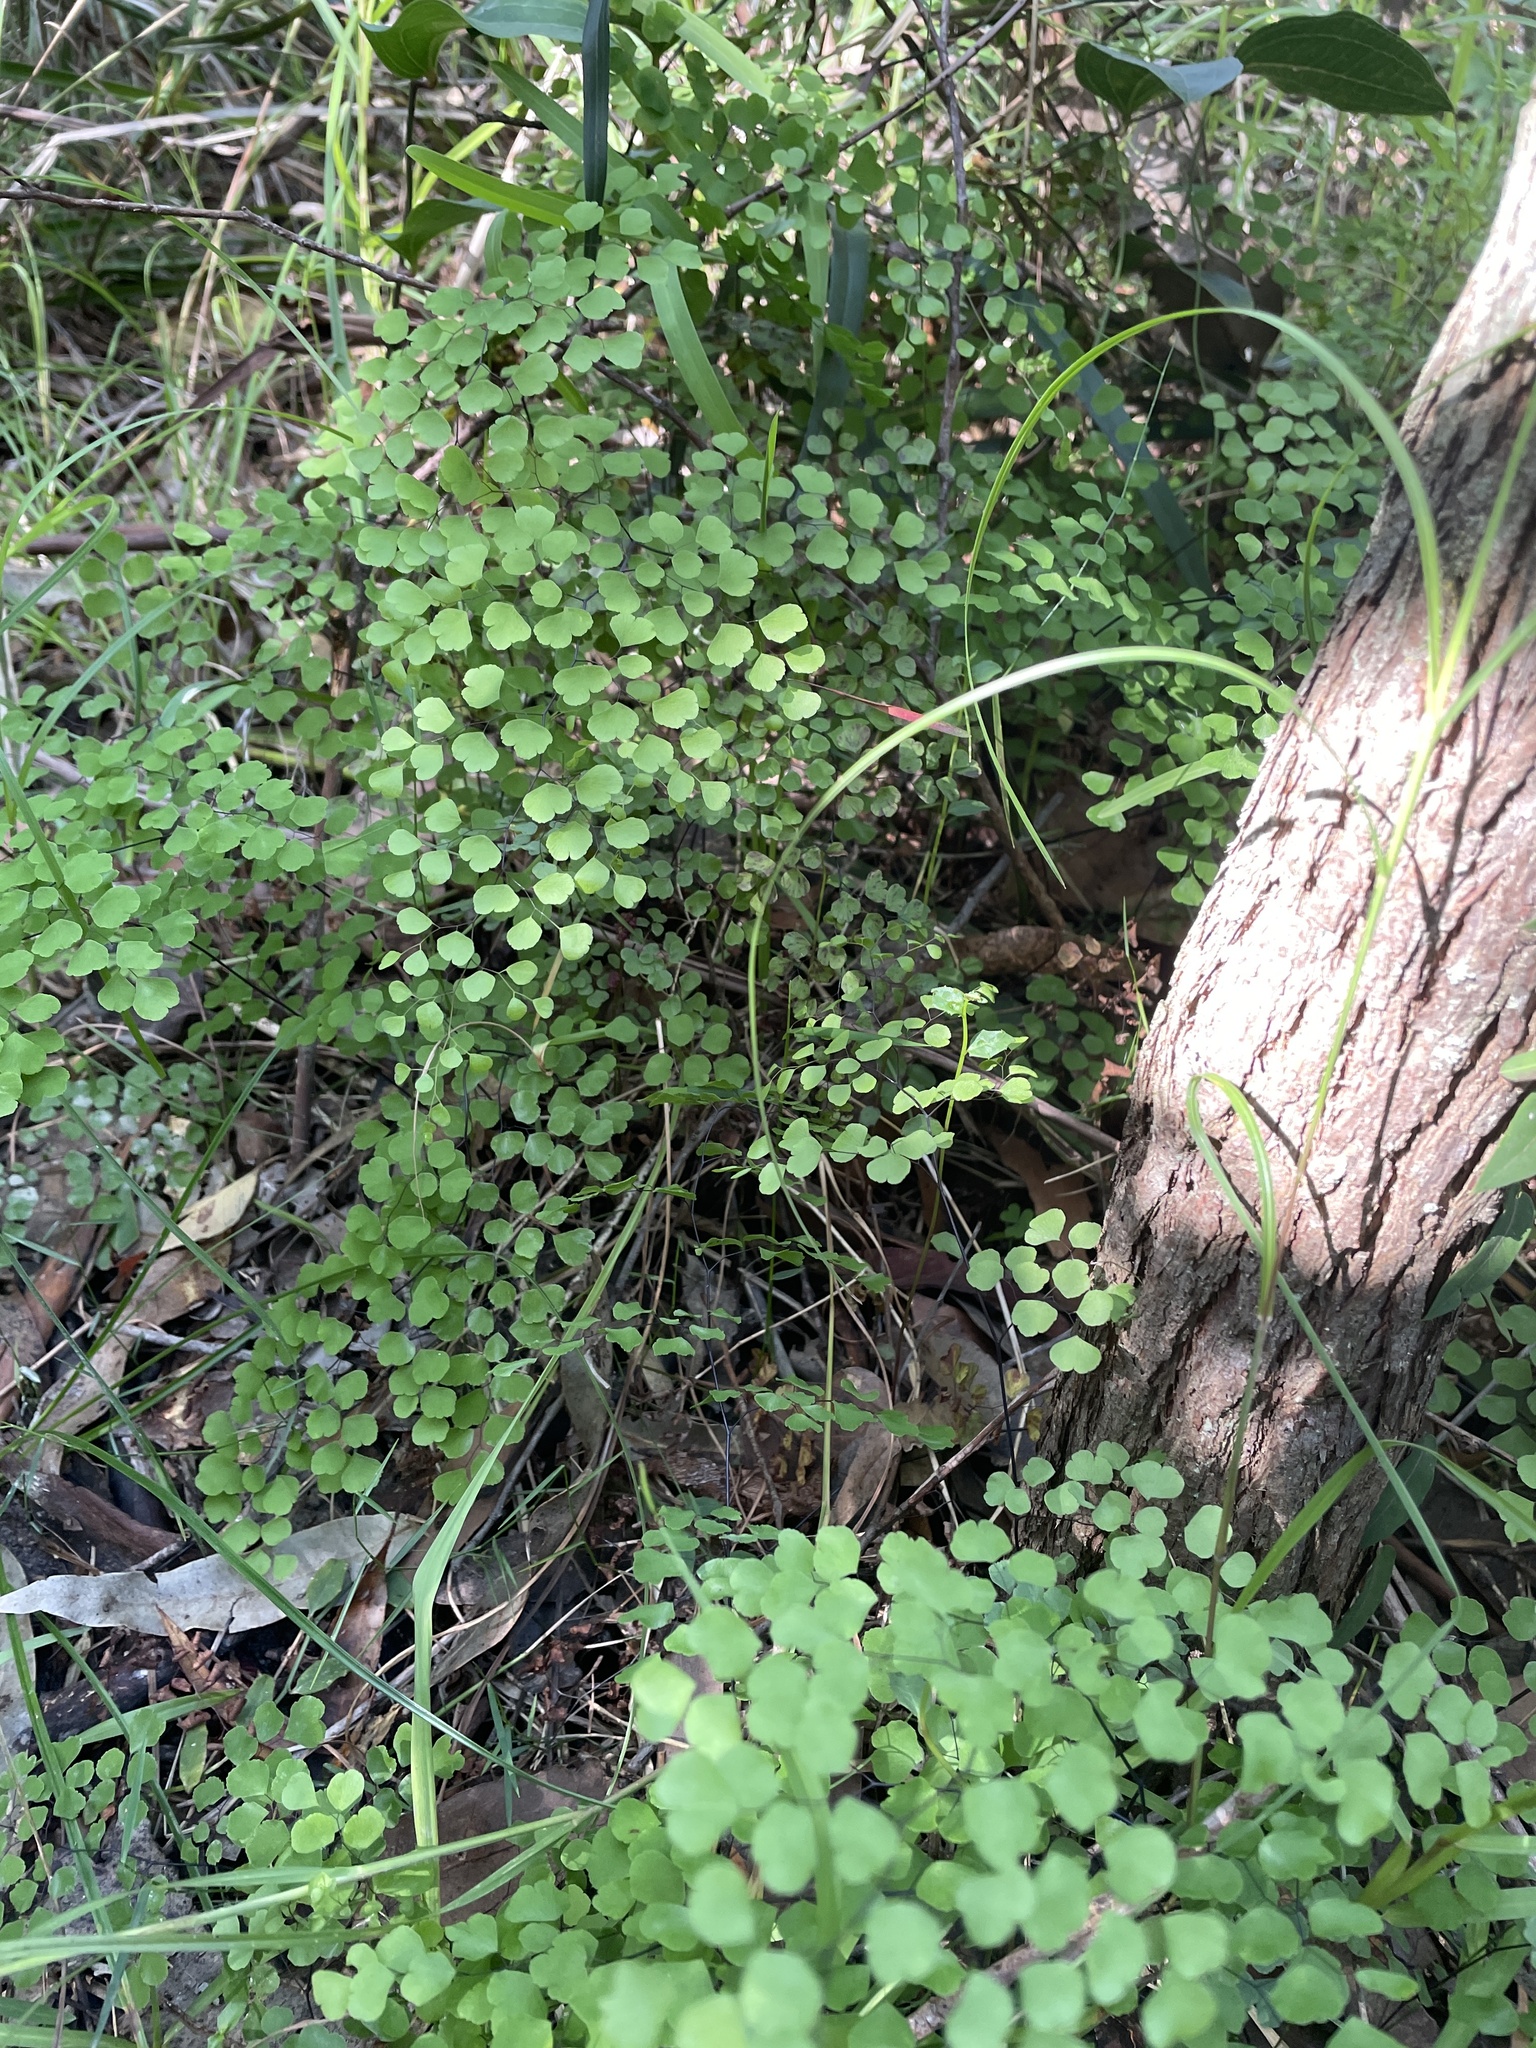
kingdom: Plantae
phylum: Tracheophyta
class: Polypodiopsida
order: Polypodiales
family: Pteridaceae
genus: Adiantum
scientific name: Adiantum aethiopicum
